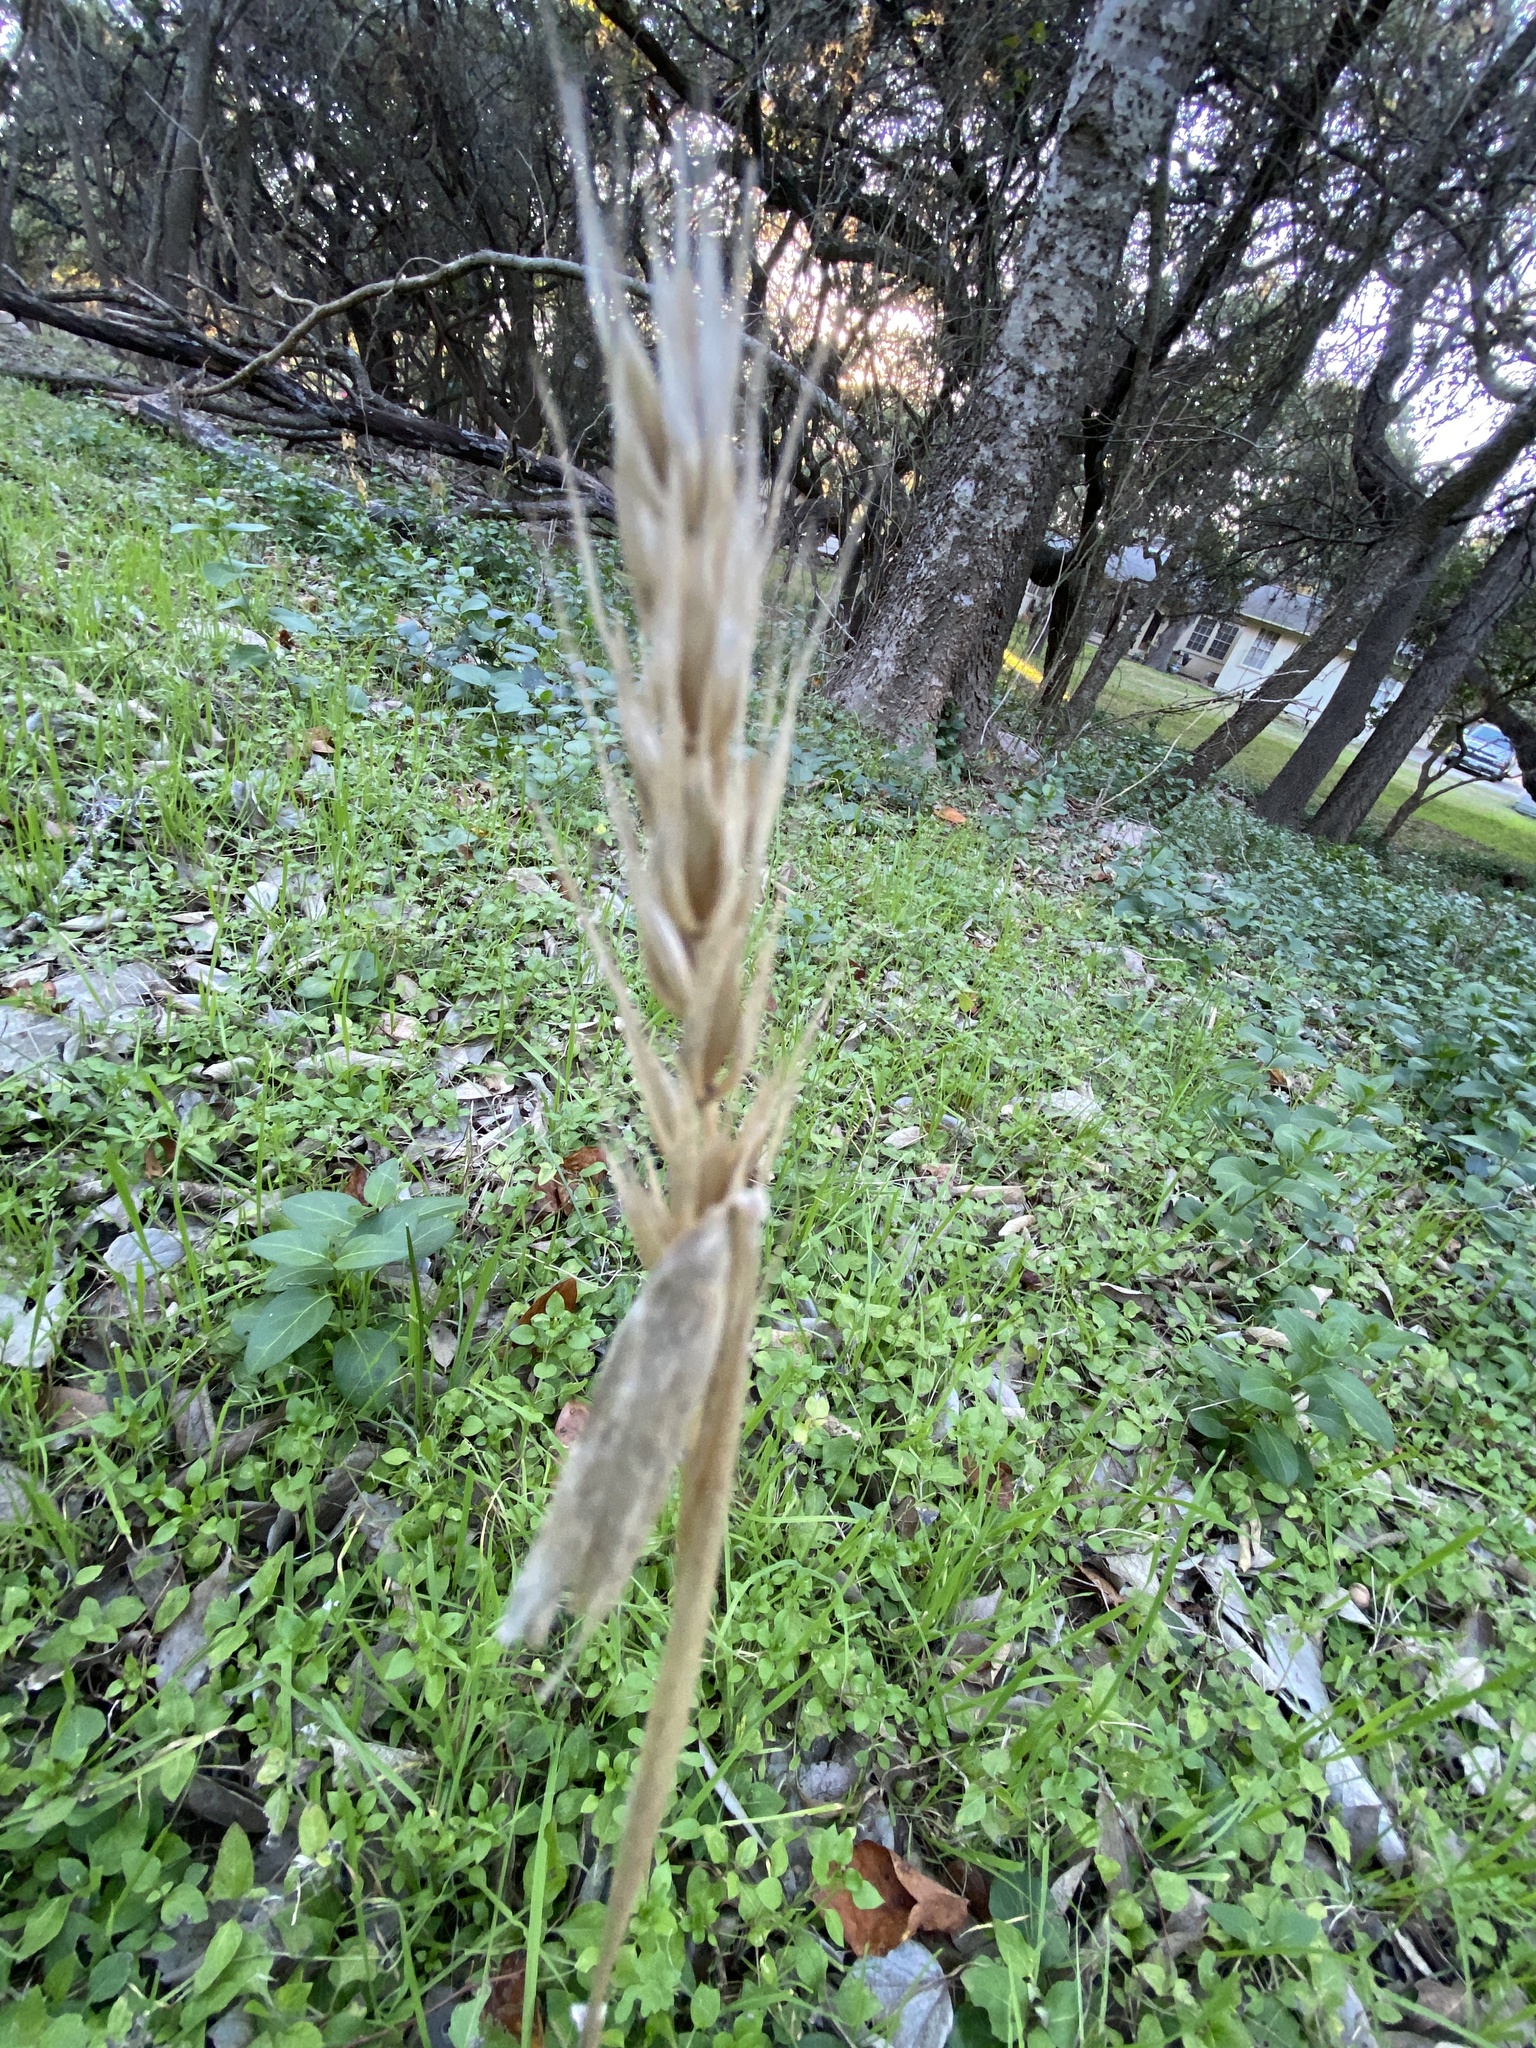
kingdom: Plantae
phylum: Tracheophyta
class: Liliopsida
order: Poales
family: Poaceae
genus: Elymus
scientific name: Elymus virginicus
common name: Common eastern wildrye
